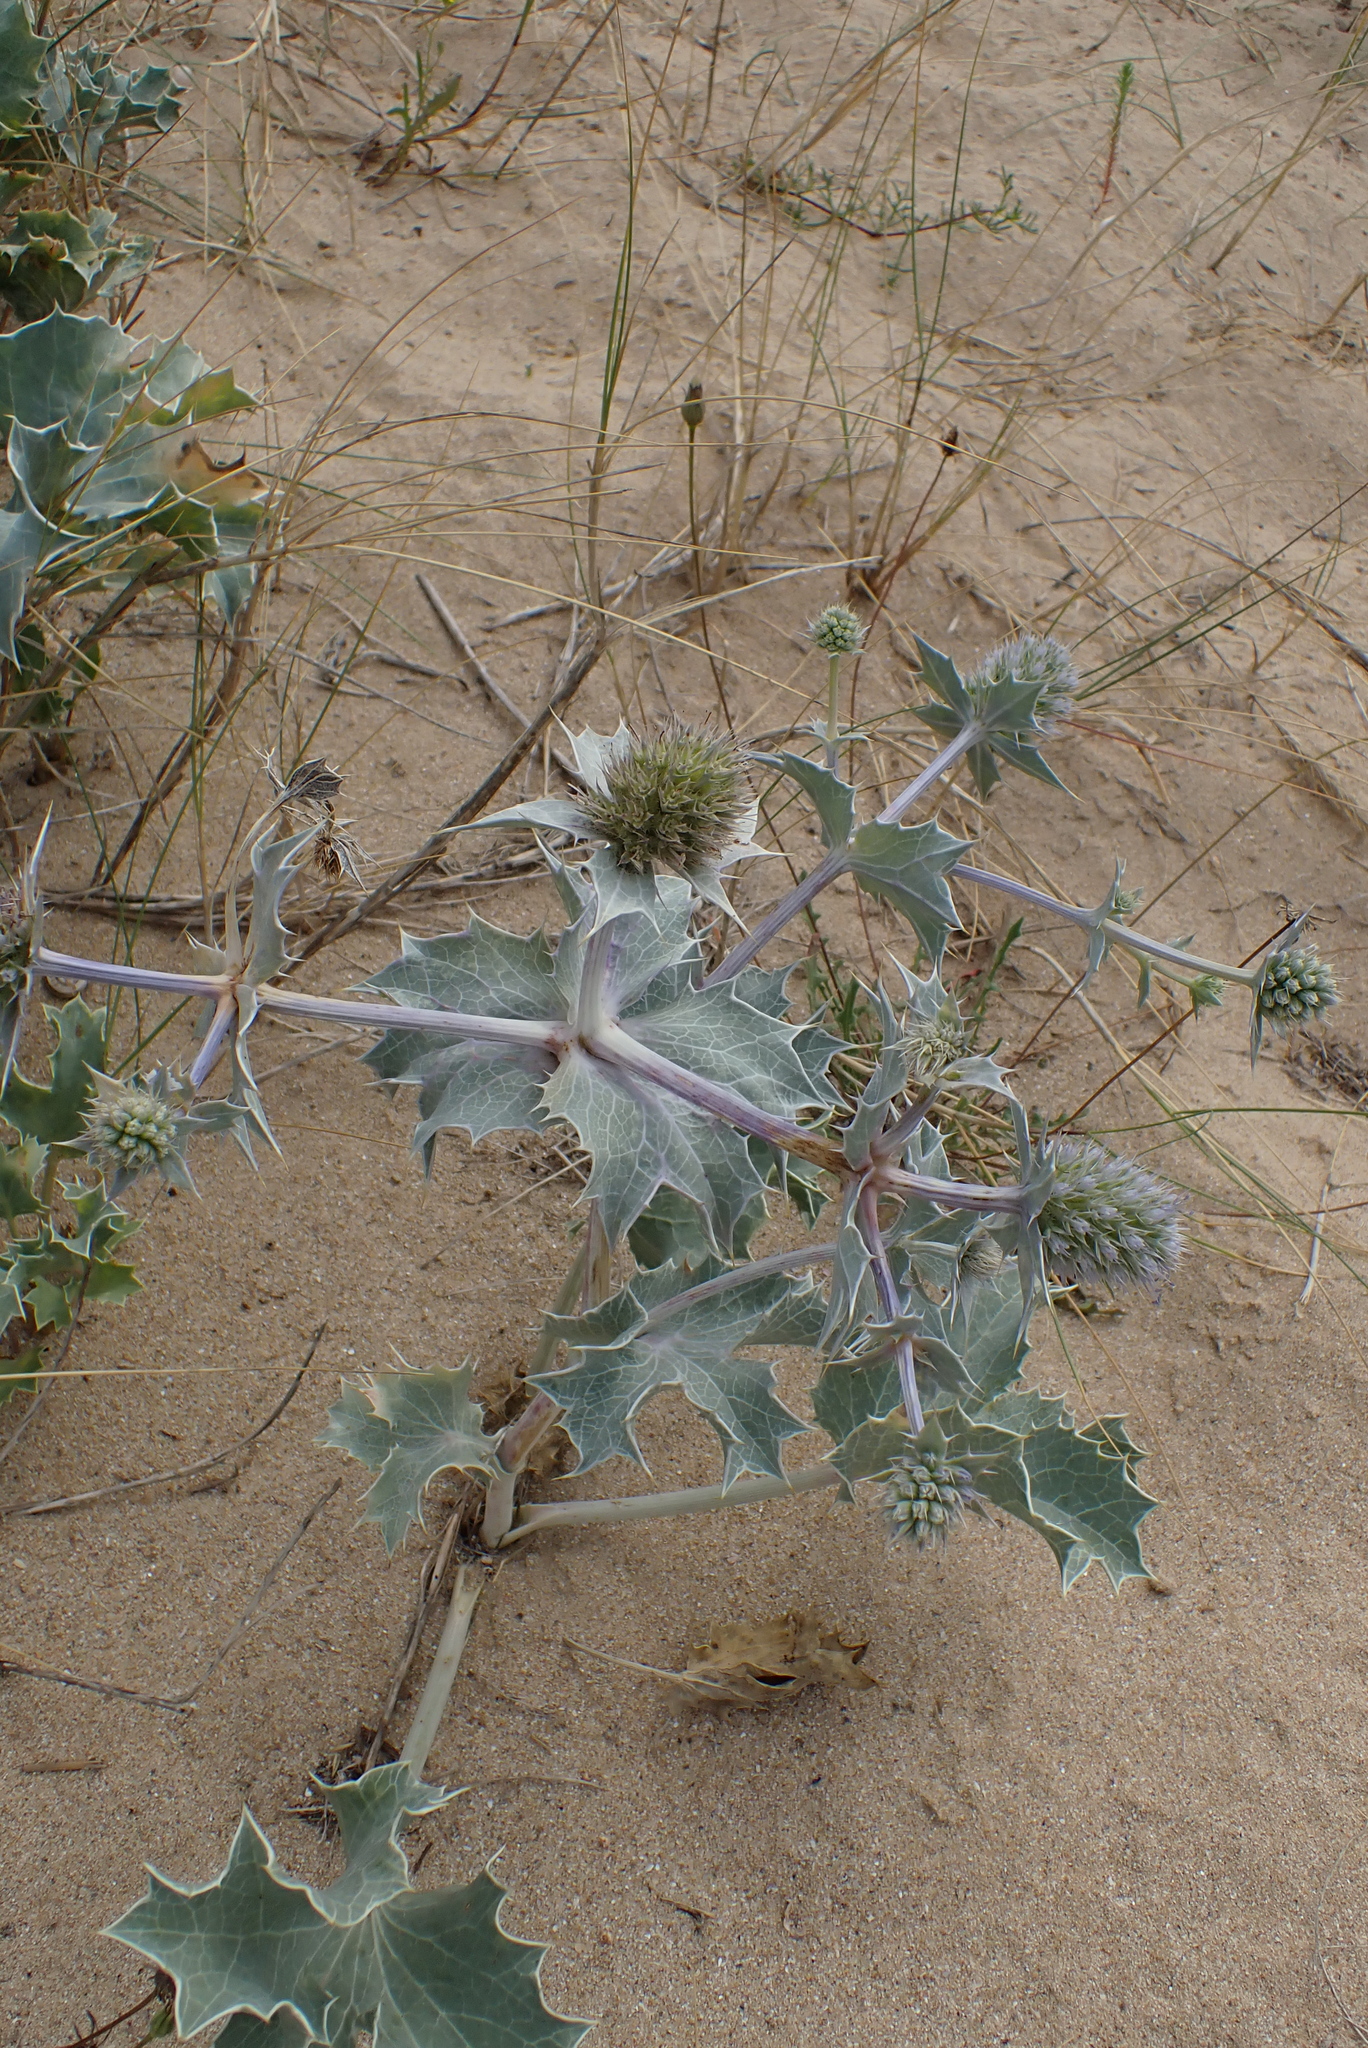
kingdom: Plantae
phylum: Tracheophyta
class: Magnoliopsida
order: Apiales
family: Apiaceae
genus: Eryngium
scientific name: Eryngium maritimum
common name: Sea-holly
